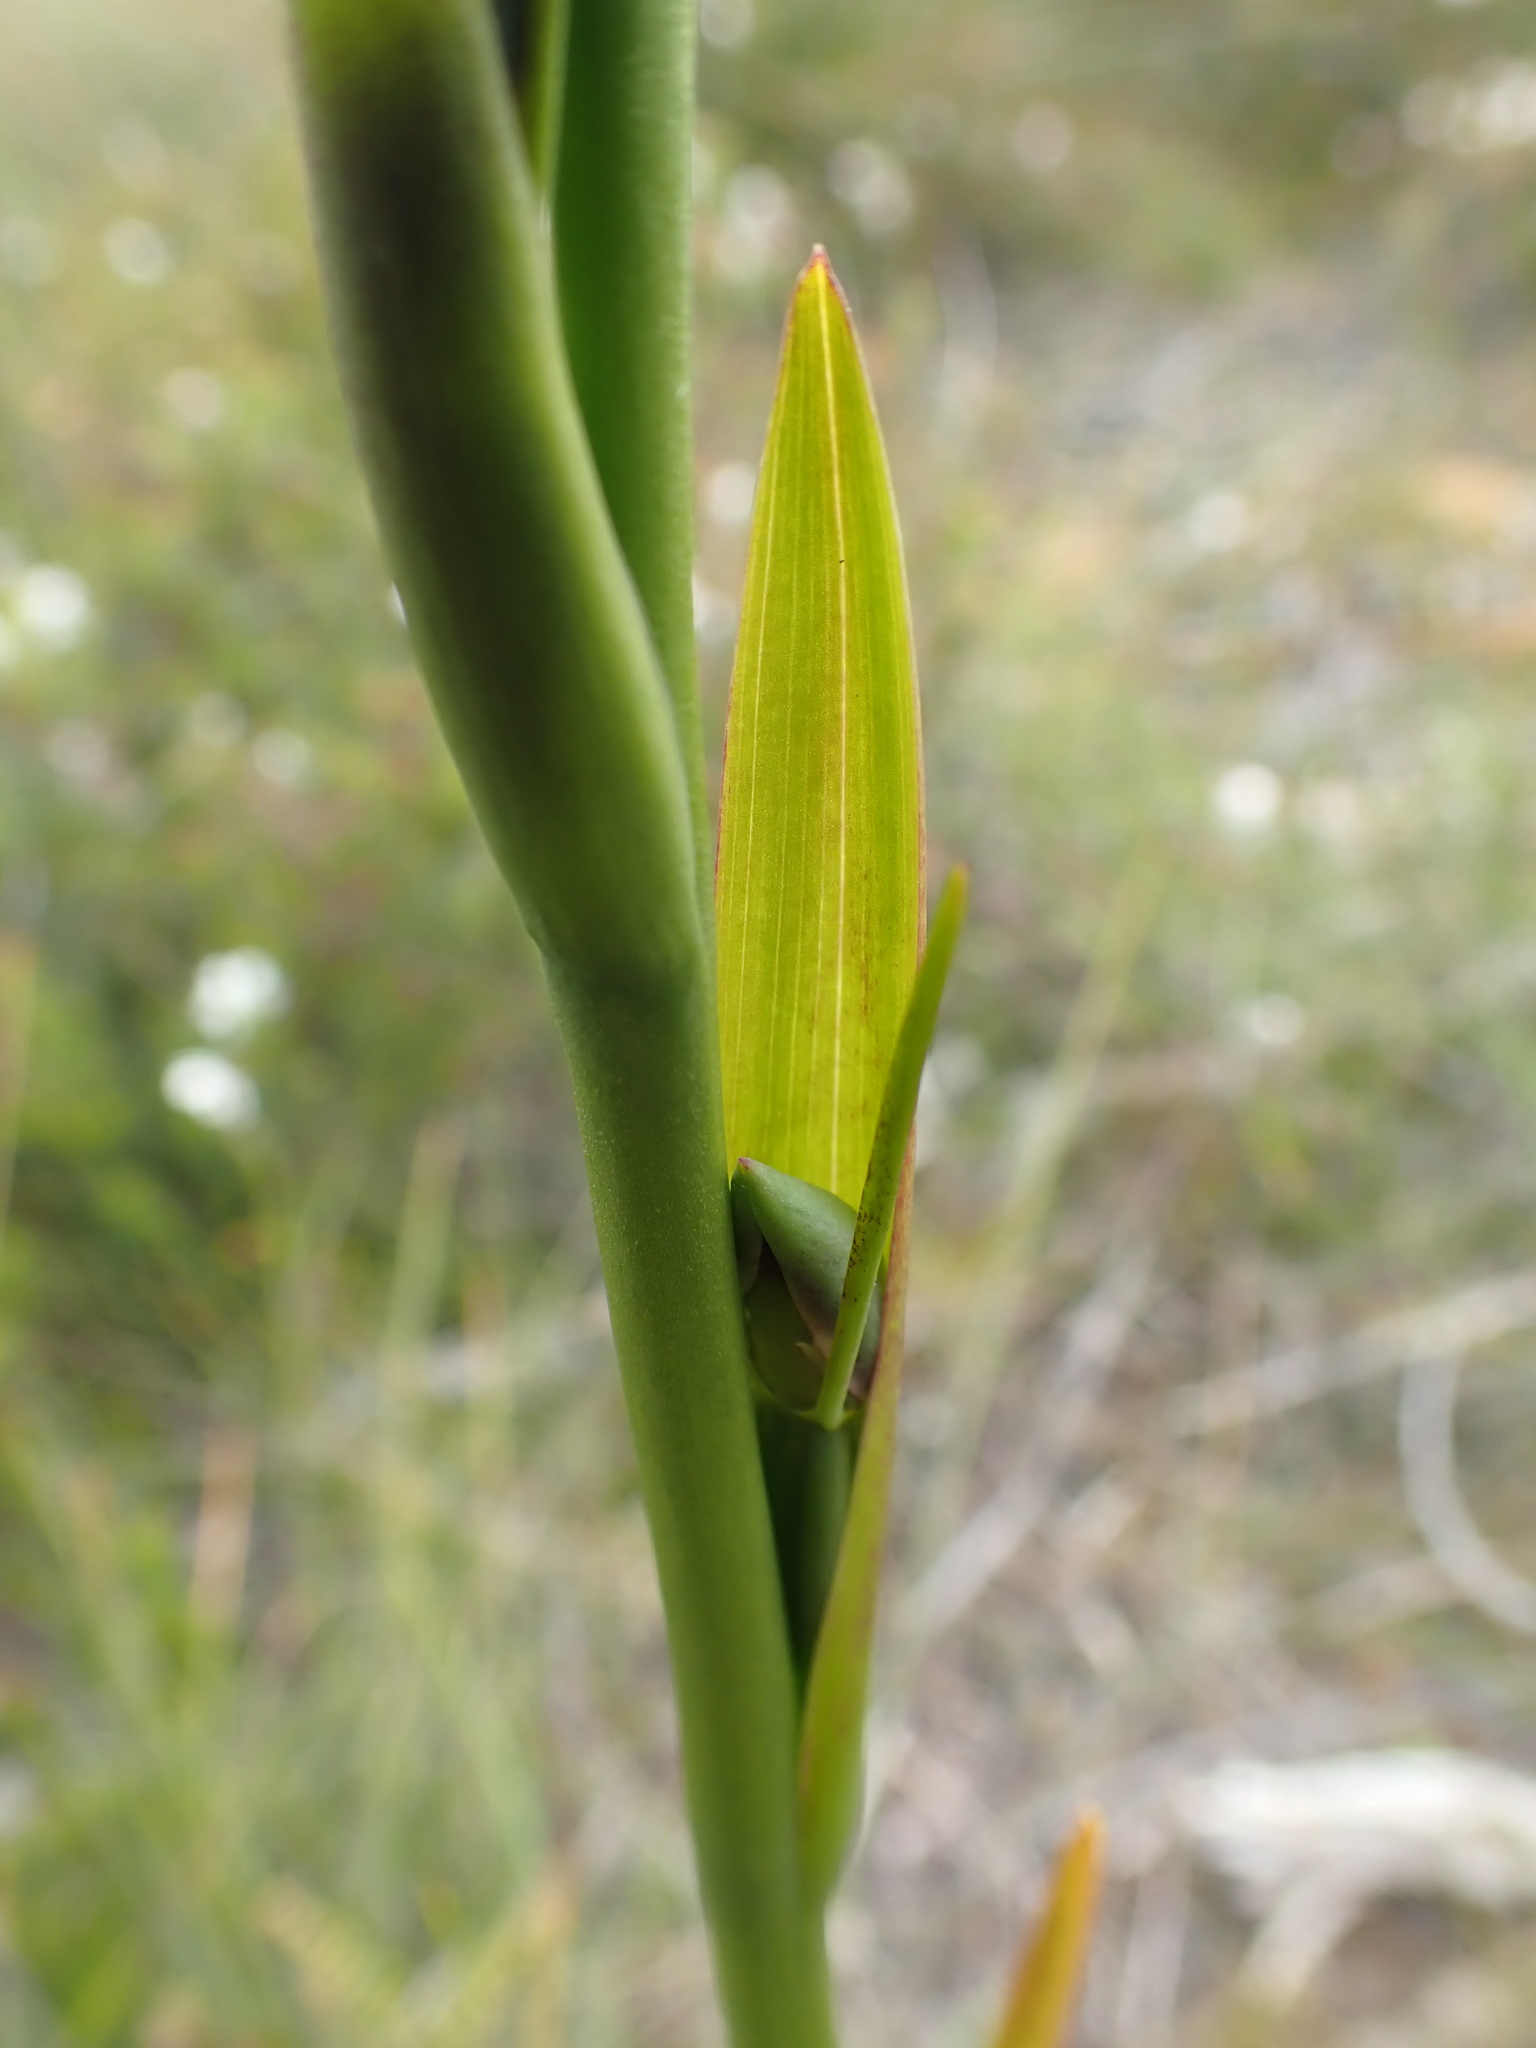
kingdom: Plantae
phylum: Tracheophyta
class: Liliopsida
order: Asparagales
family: Orchidaceae
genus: Orthoceras
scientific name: Orthoceras strictum
